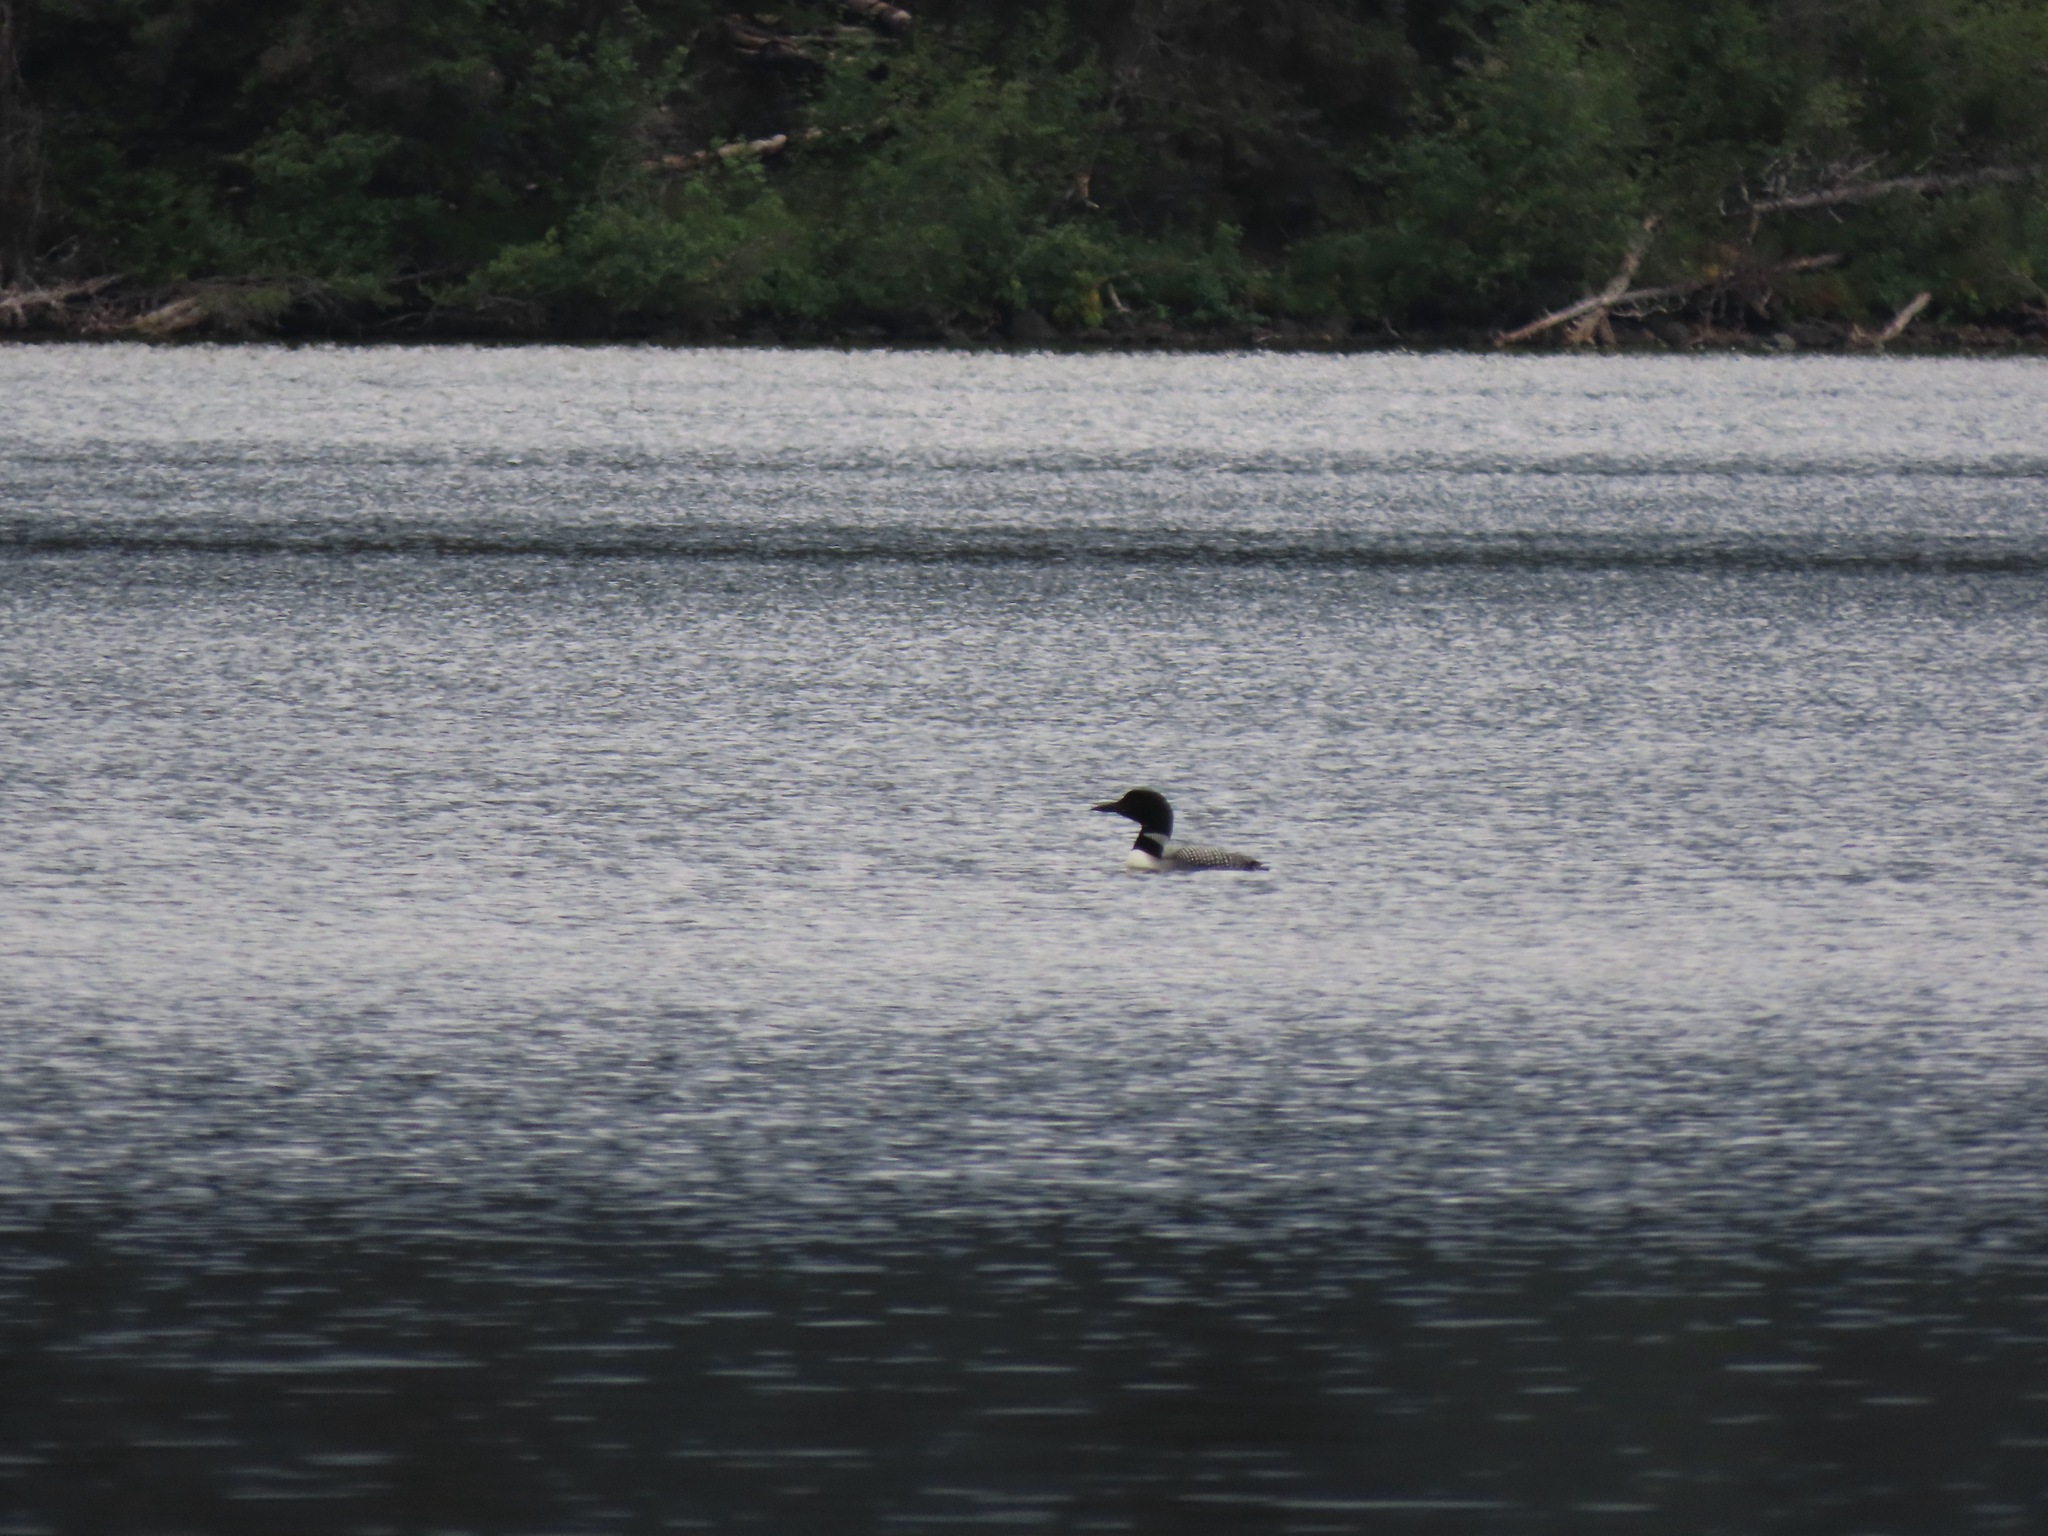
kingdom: Animalia
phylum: Chordata
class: Aves
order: Gaviiformes
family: Gaviidae
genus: Gavia
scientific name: Gavia immer
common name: Common loon
